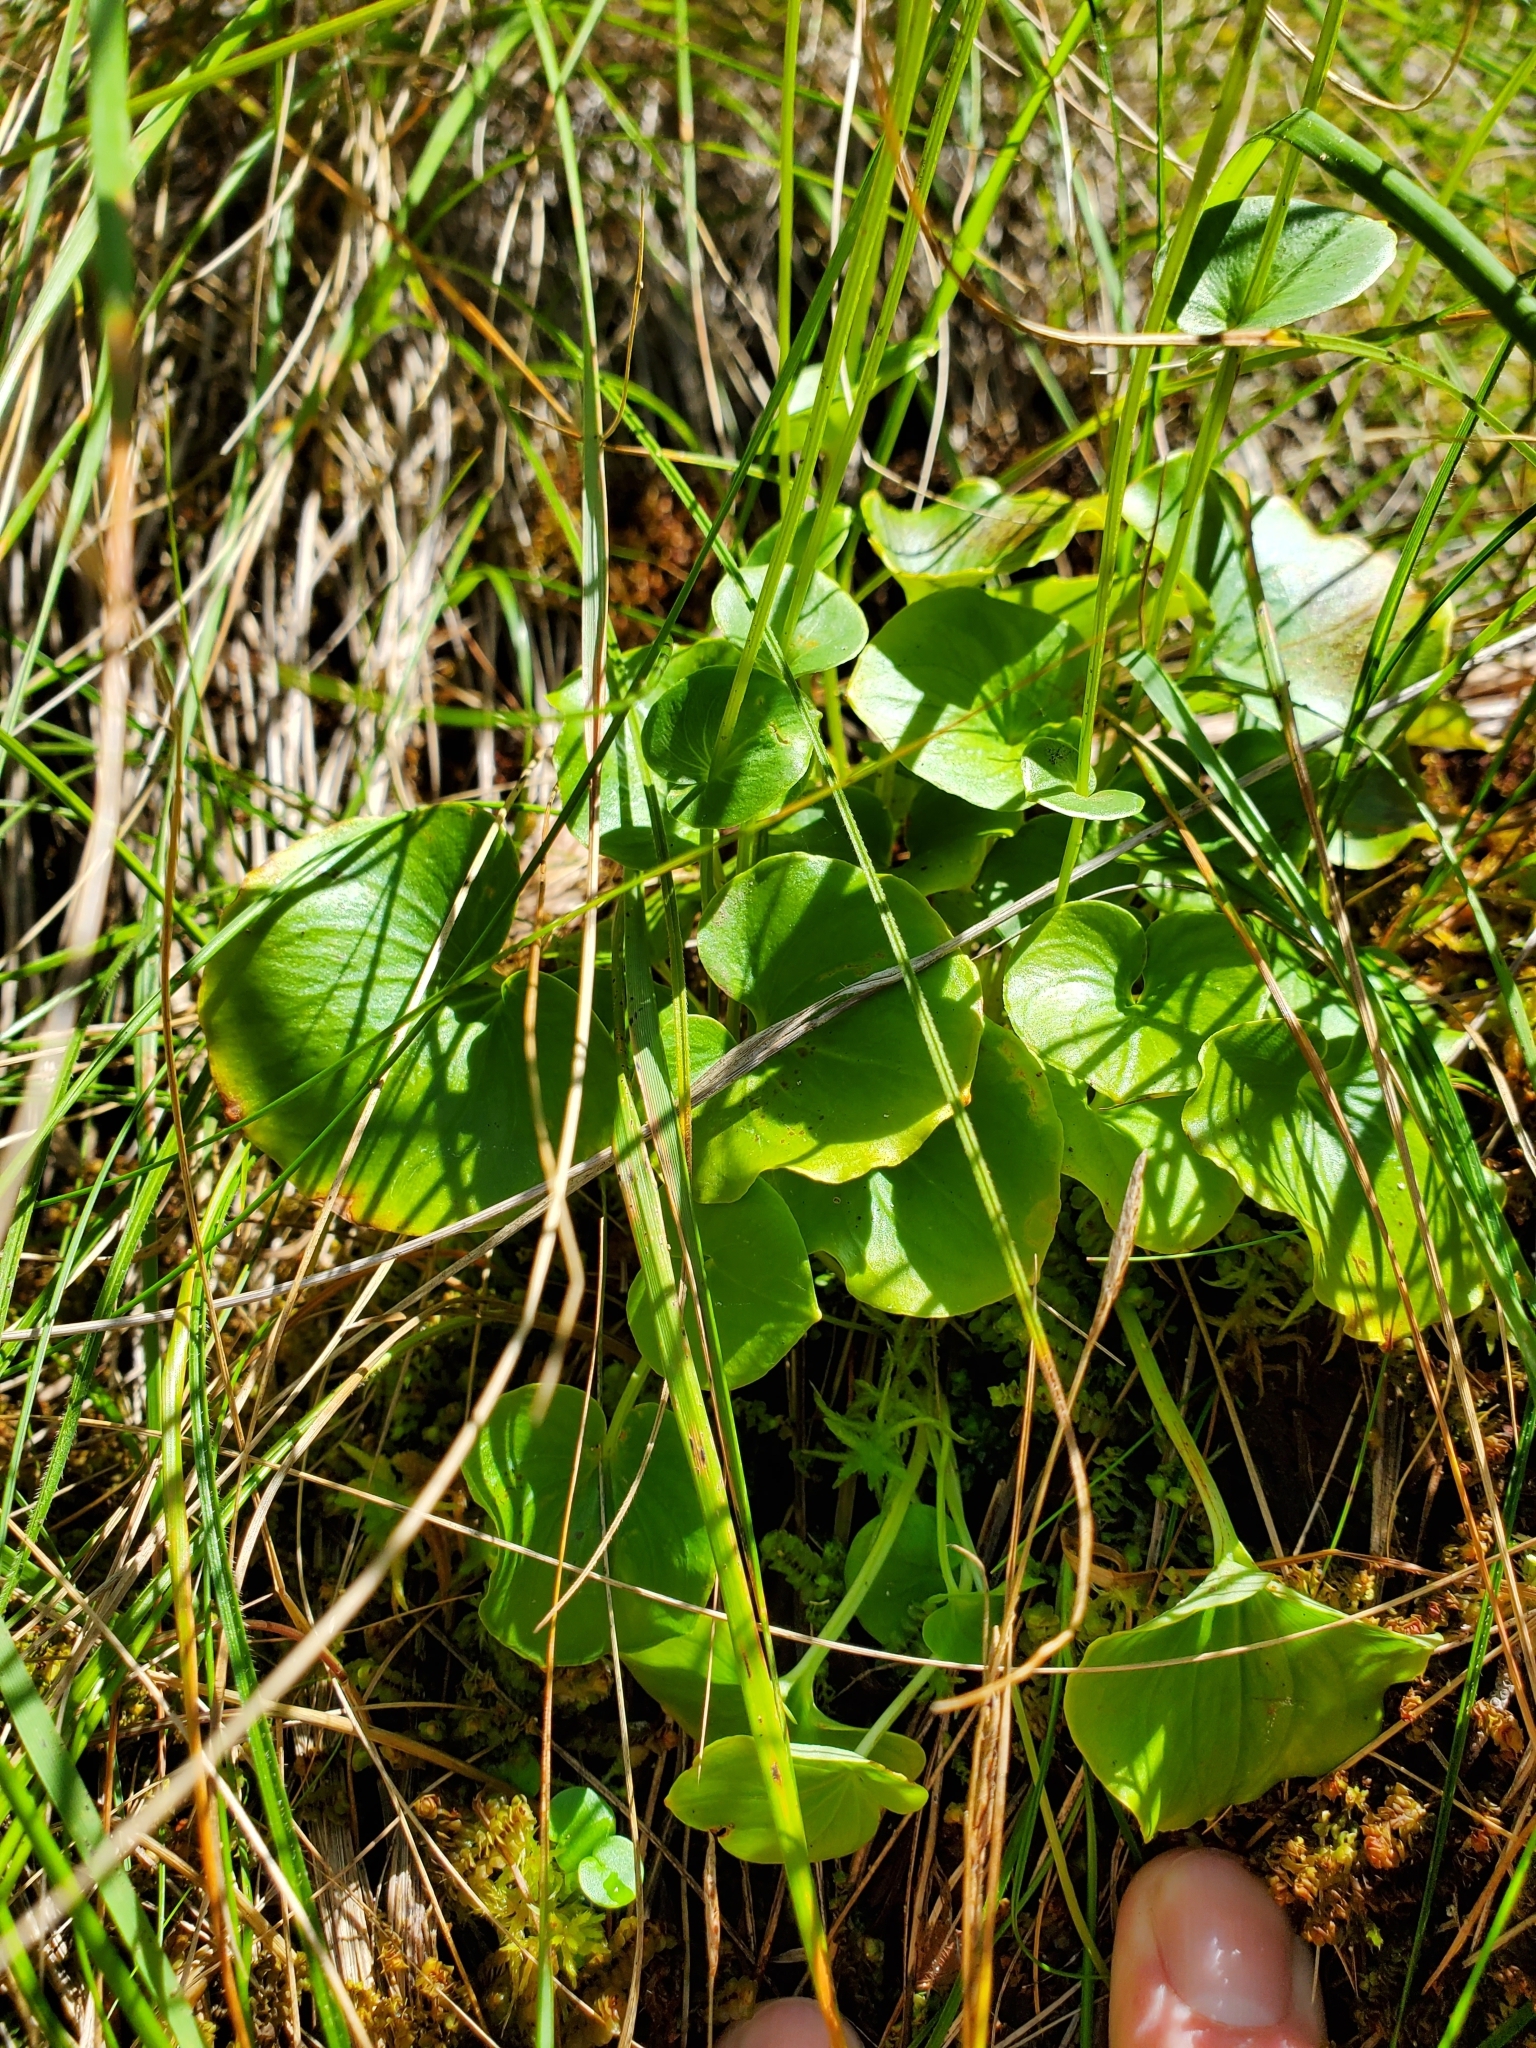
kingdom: Plantae
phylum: Tracheophyta
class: Magnoliopsida
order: Celastrales
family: Parnassiaceae
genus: Parnassia
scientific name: Parnassia asarifolia
